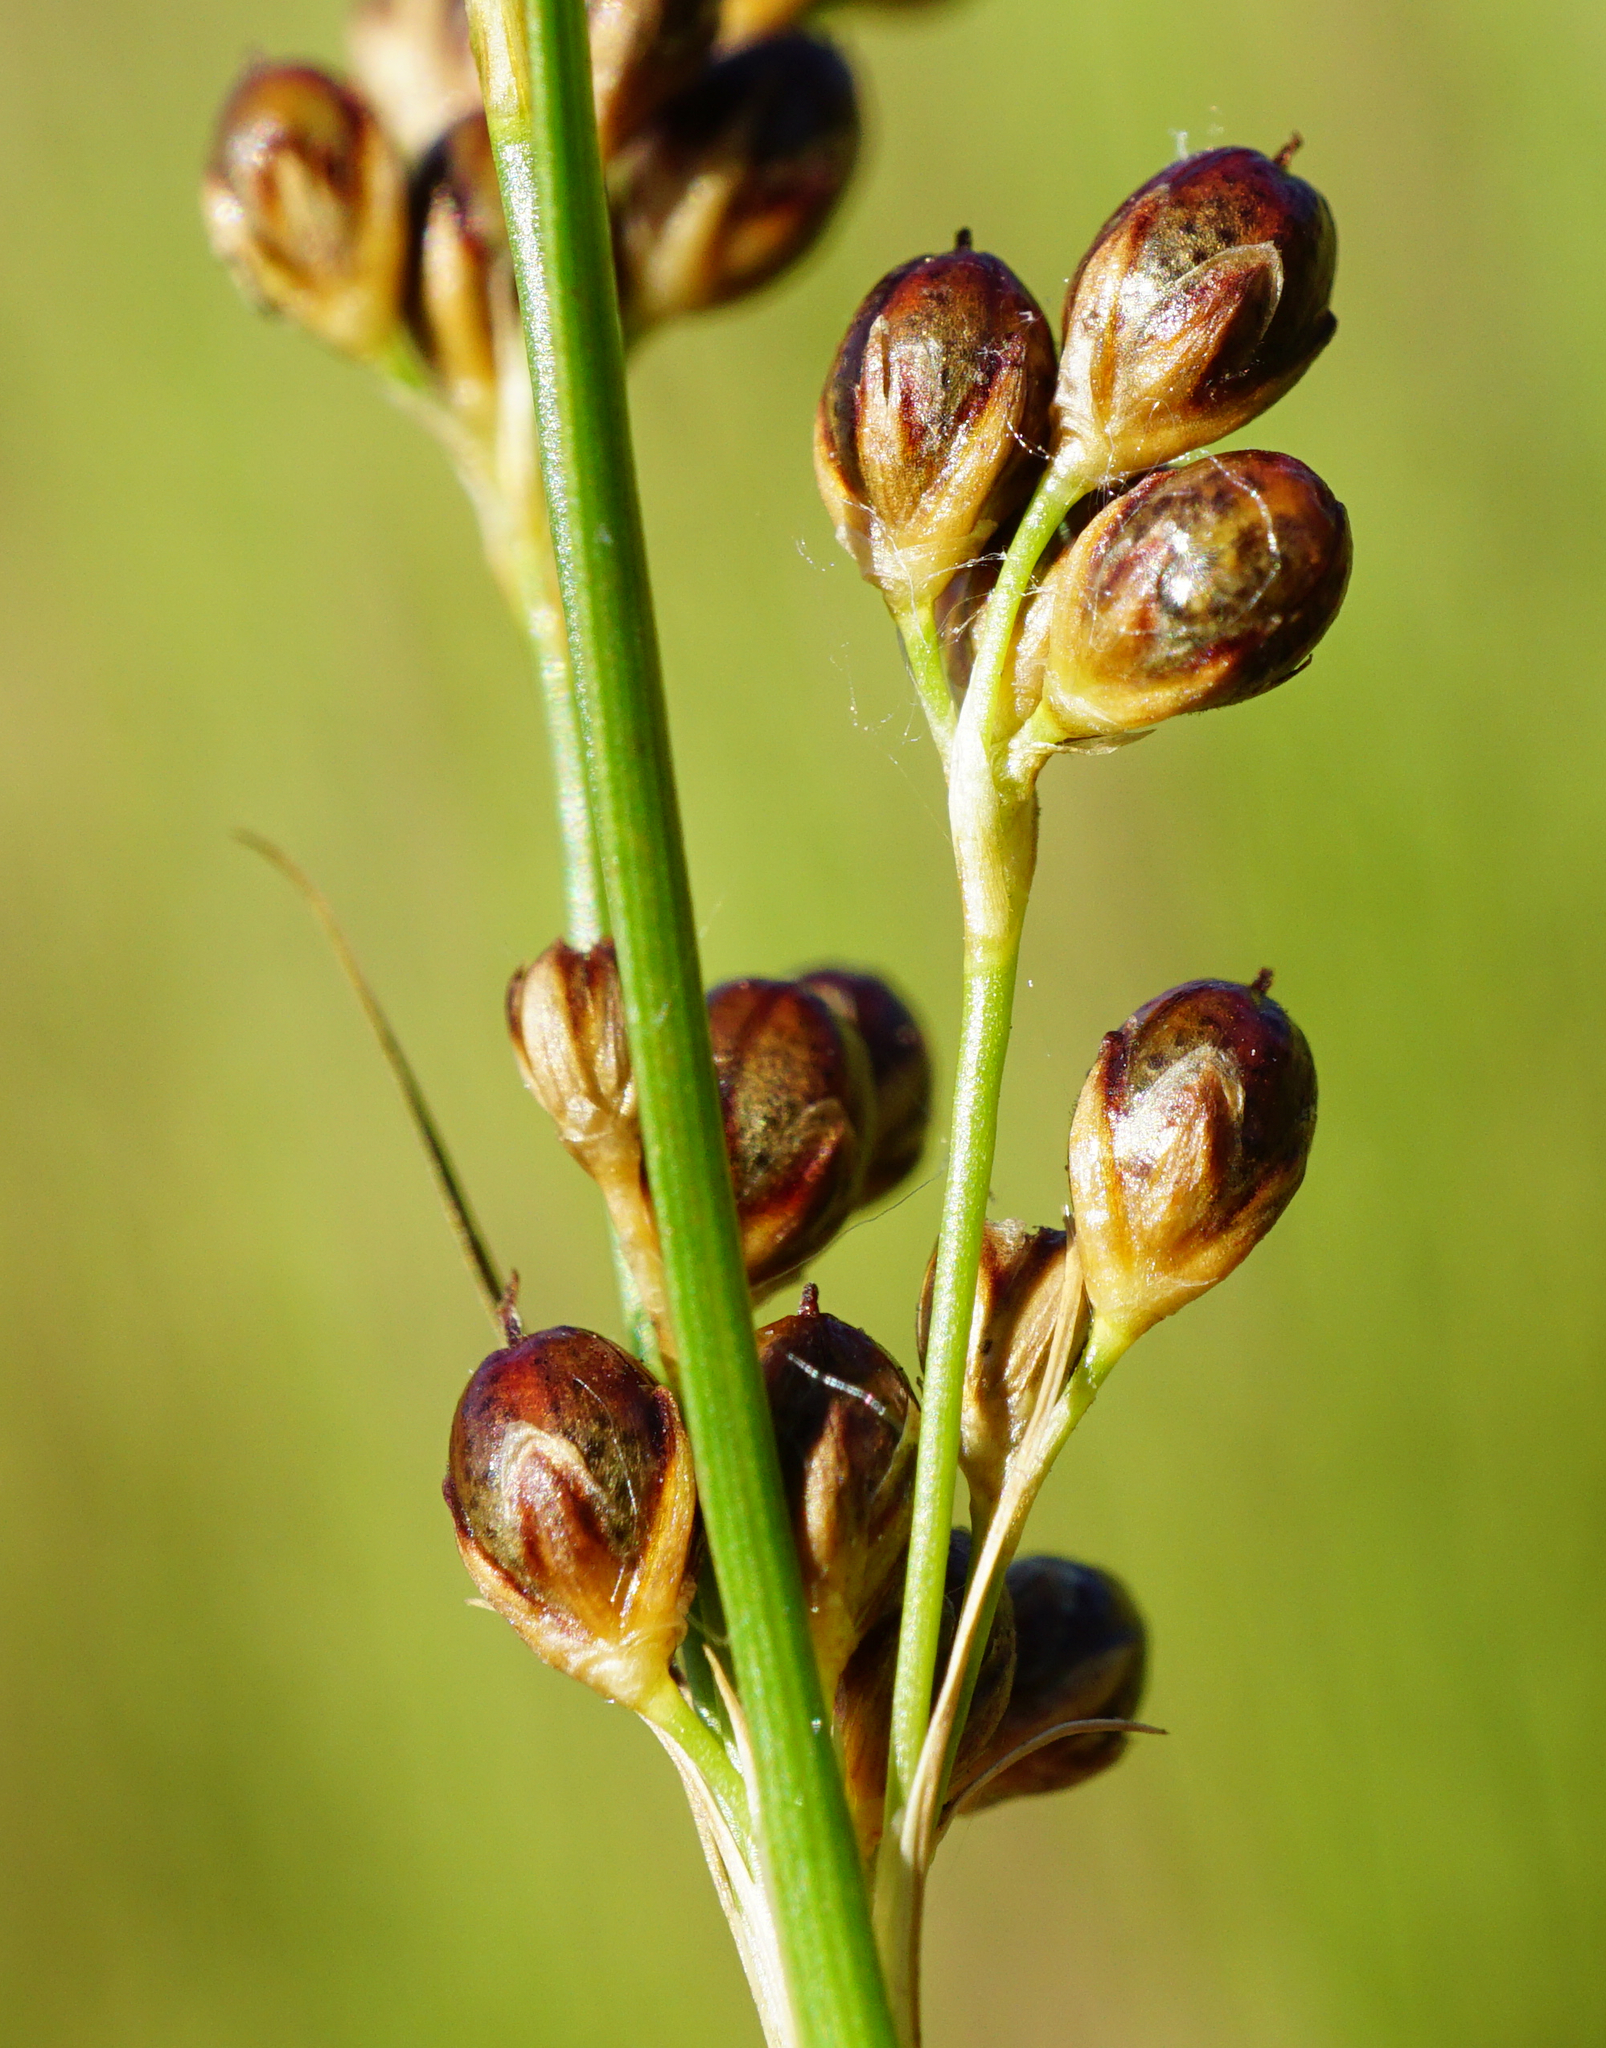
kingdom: Plantae
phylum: Tracheophyta
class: Liliopsida
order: Poales
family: Juncaceae
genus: Juncus
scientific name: Juncus compressus
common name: Round-fruited rush
